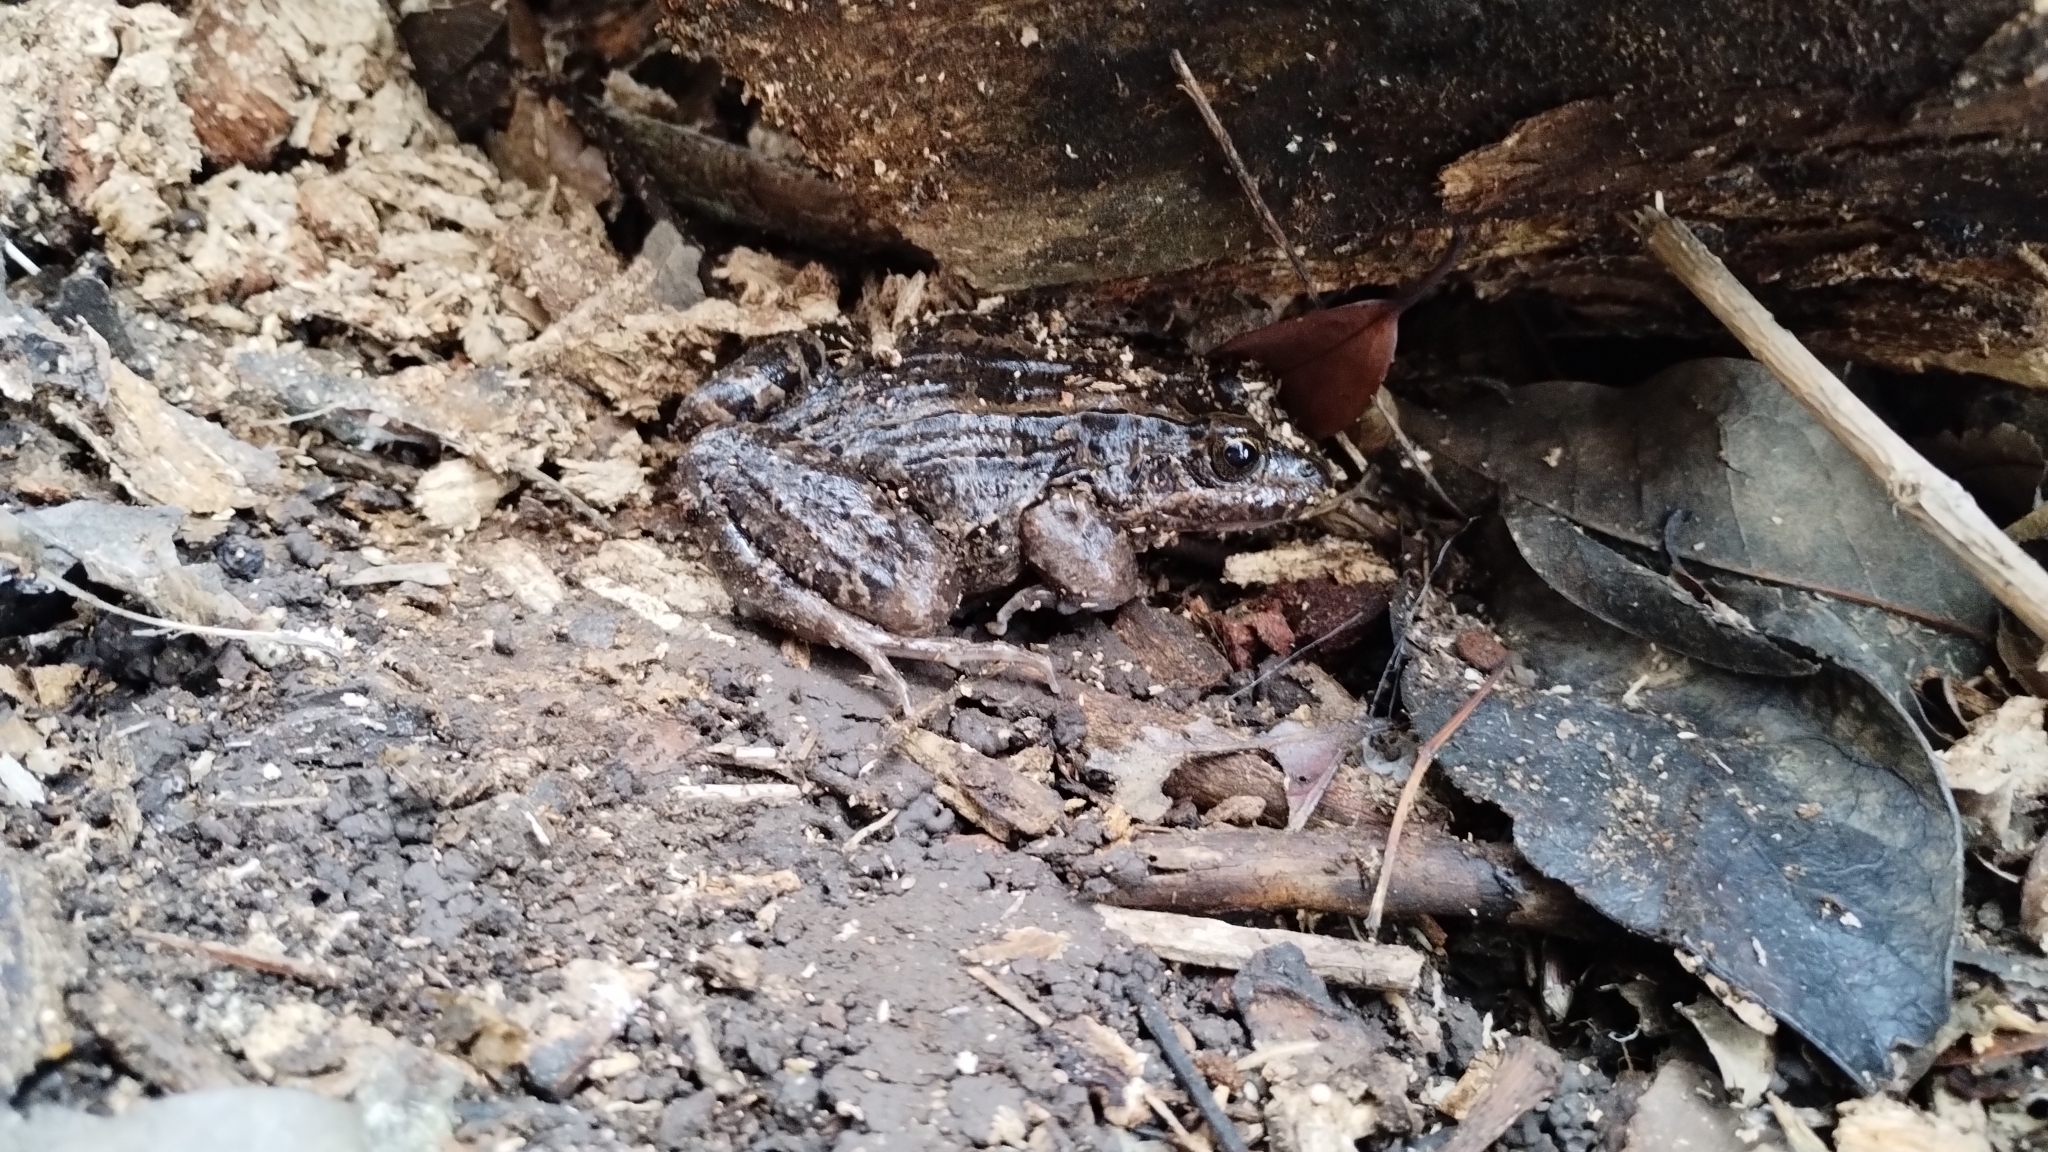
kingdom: Animalia
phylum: Chordata
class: Amphibia
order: Anura
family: Leptodactylidae
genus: Leptodactylus
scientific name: Leptodactylus luctator
